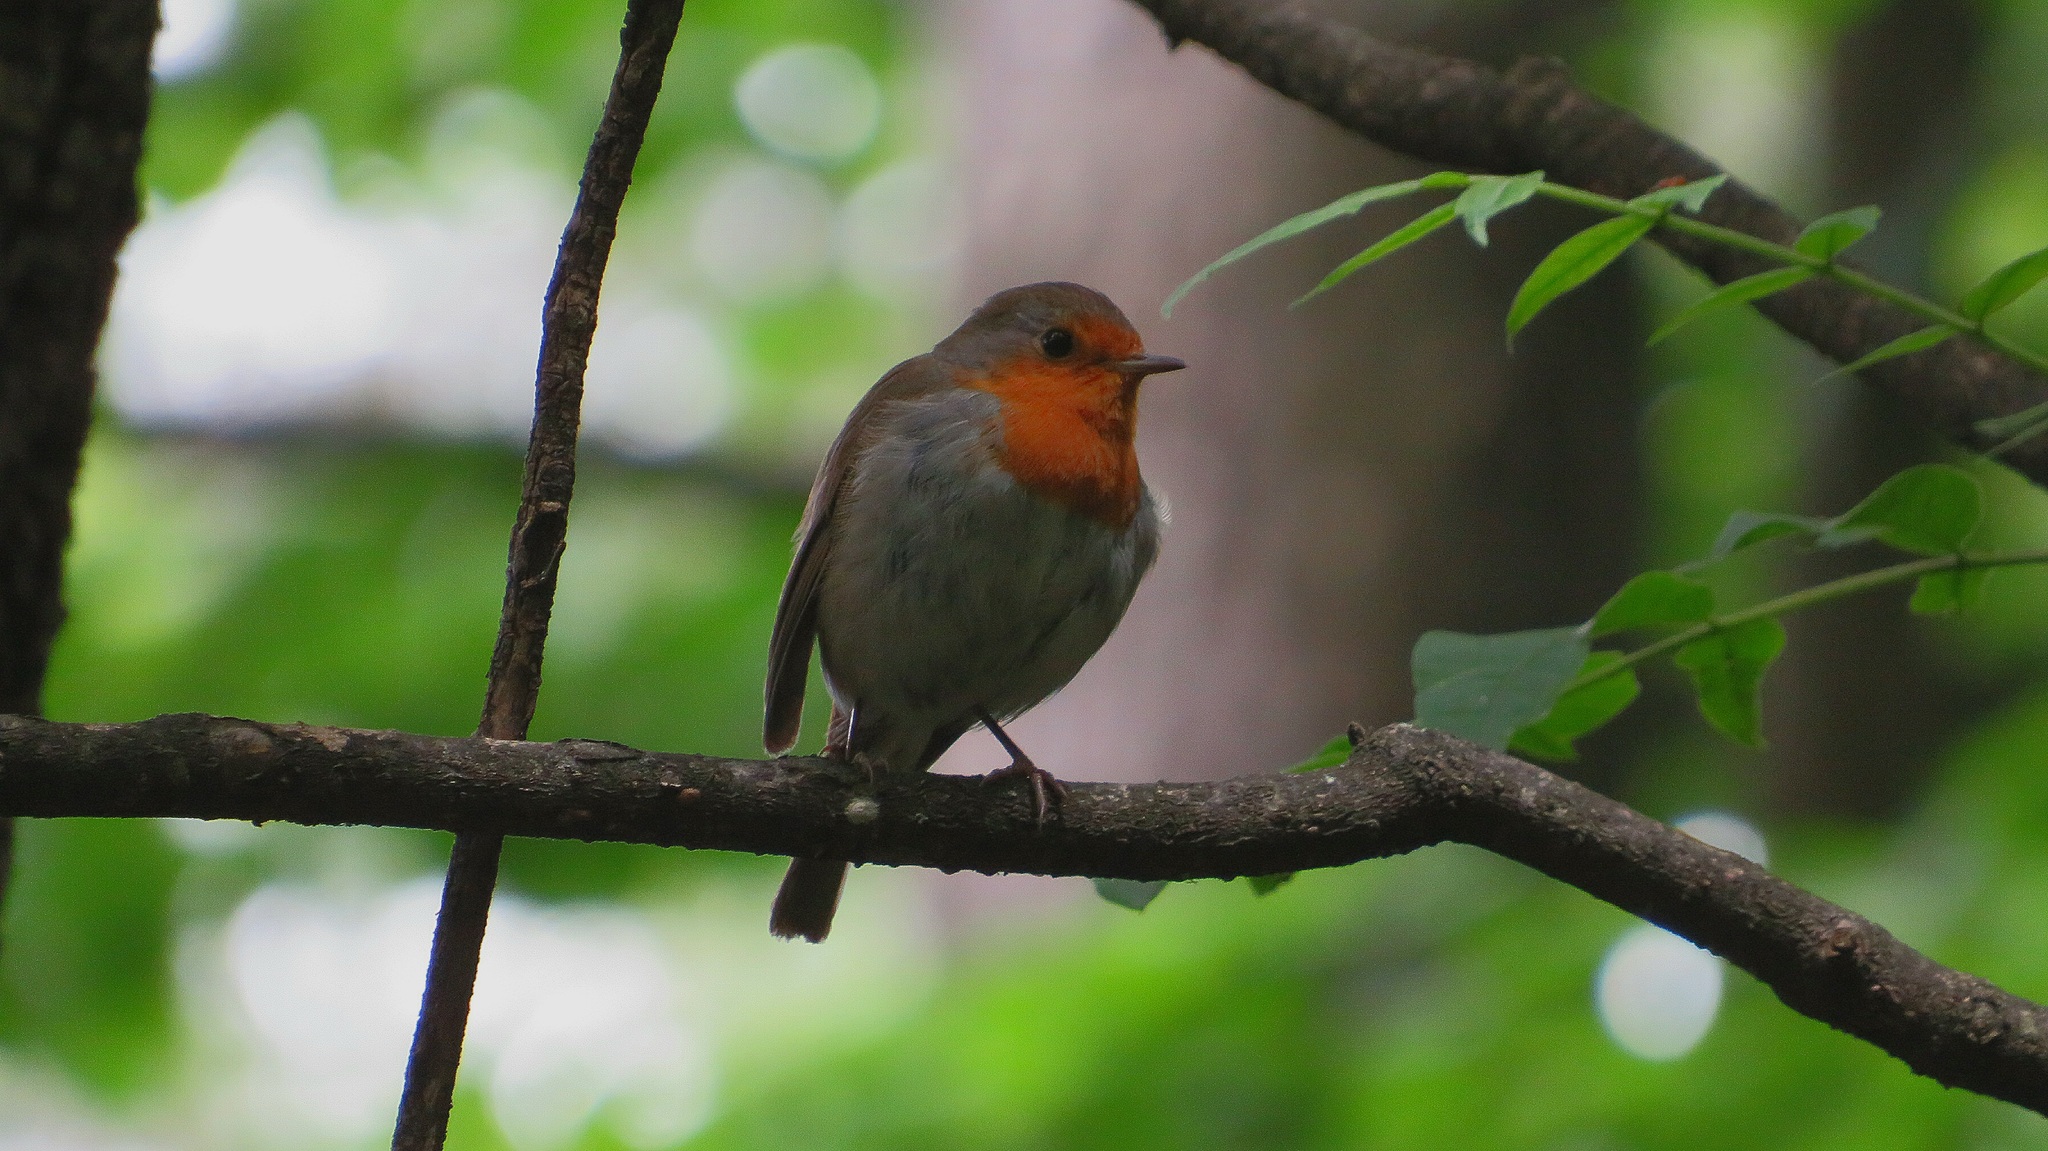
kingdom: Animalia
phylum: Chordata
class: Aves
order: Passeriformes
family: Muscicapidae
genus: Erithacus
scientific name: Erithacus rubecula
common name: European robin
